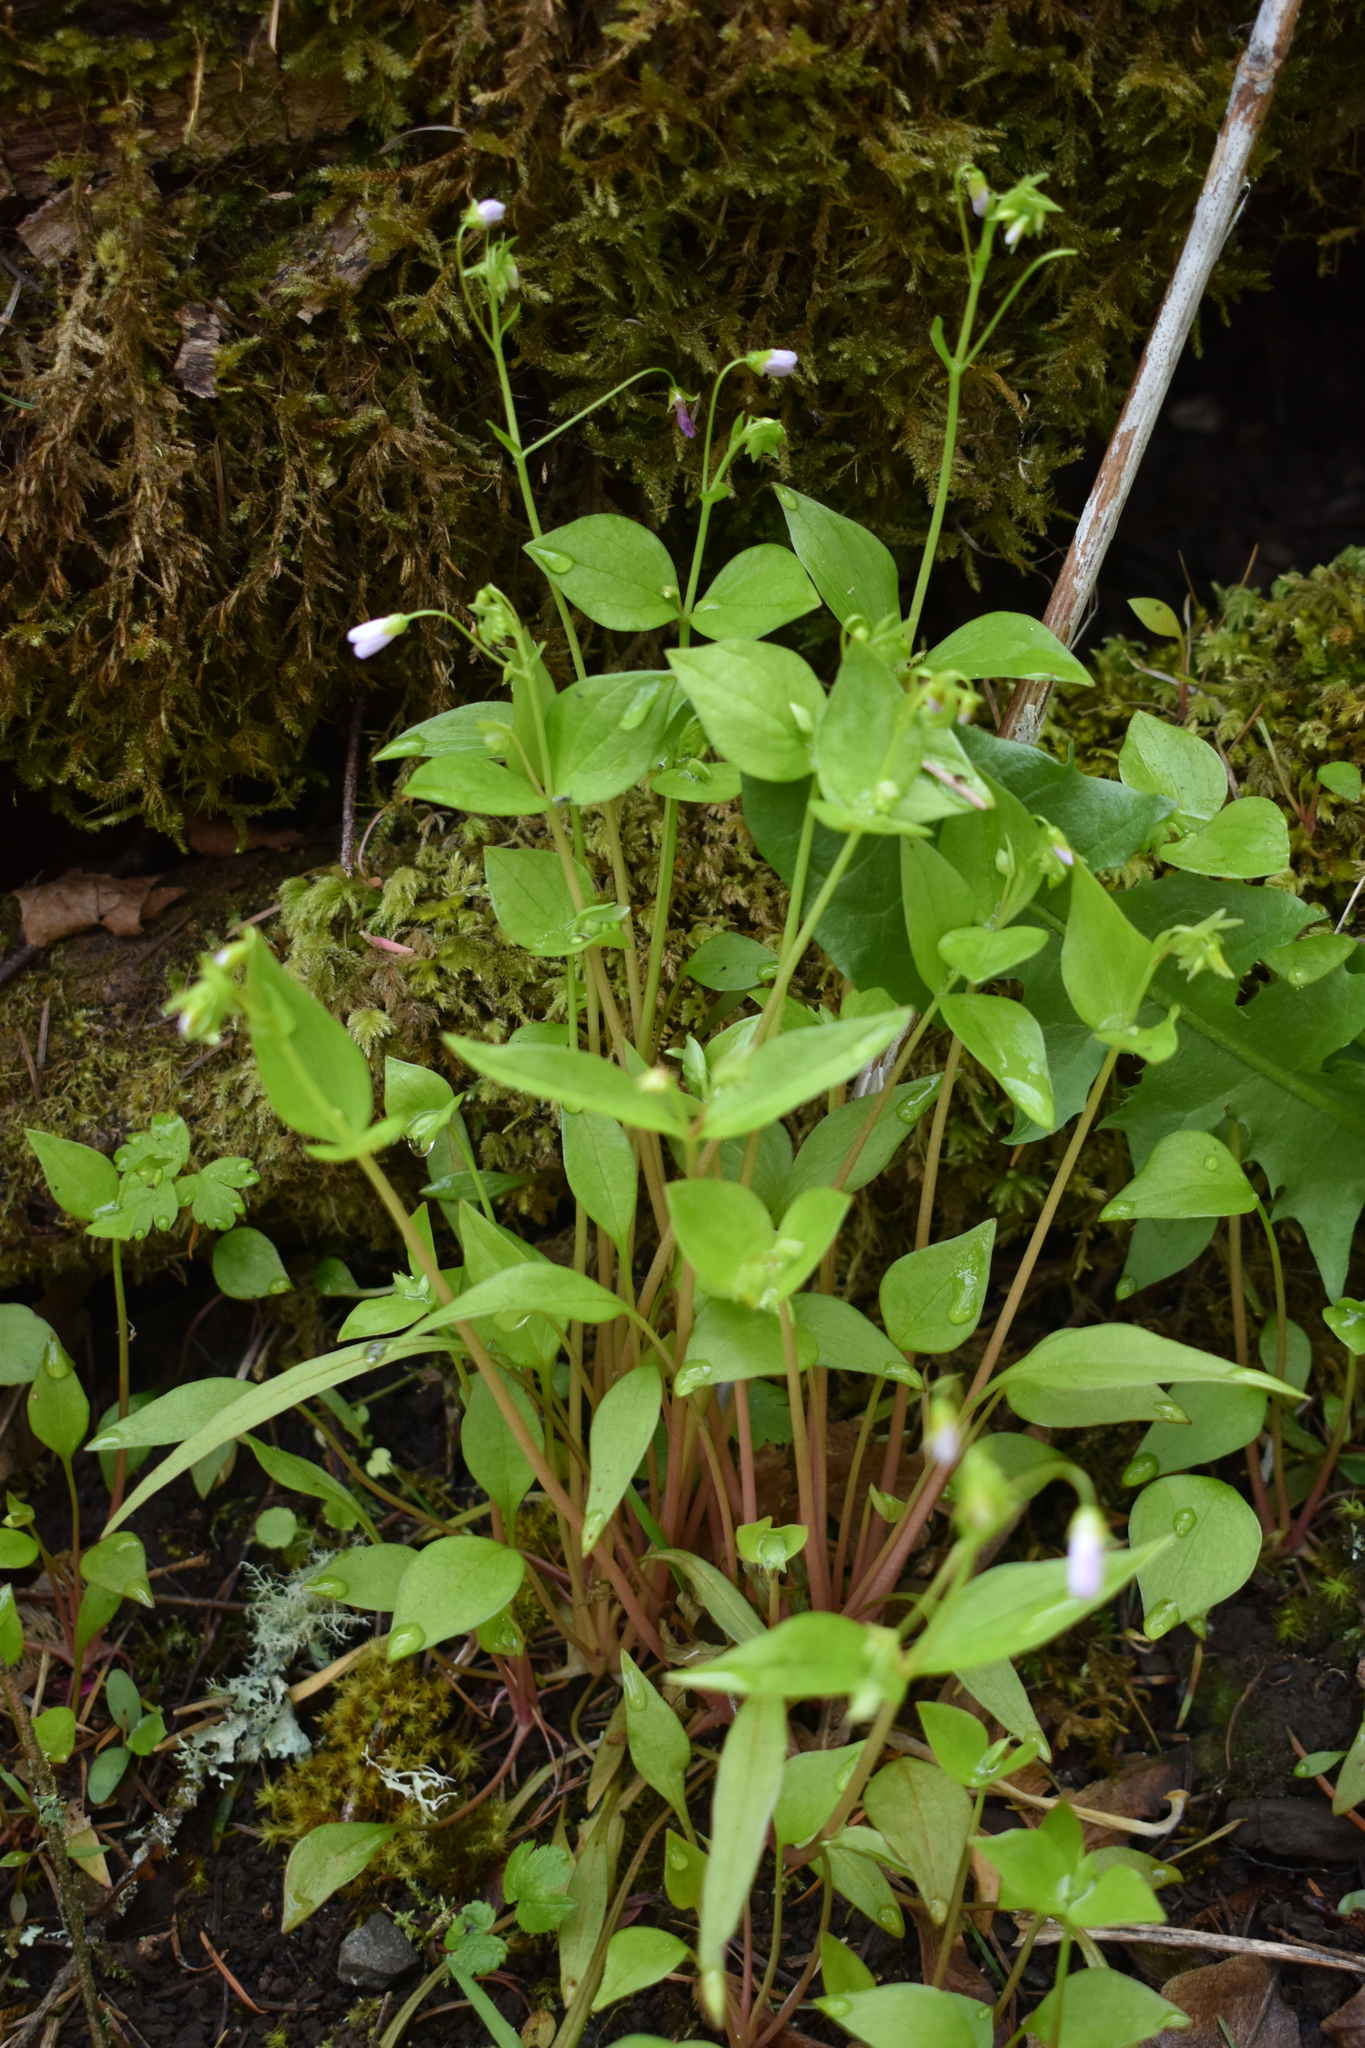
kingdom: Plantae
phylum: Tracheophyta
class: Magnoliopsida
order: Caryophyllales
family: Montiaceae
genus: Claytonia
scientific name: Claytonia sibirica
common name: Pink purslane
